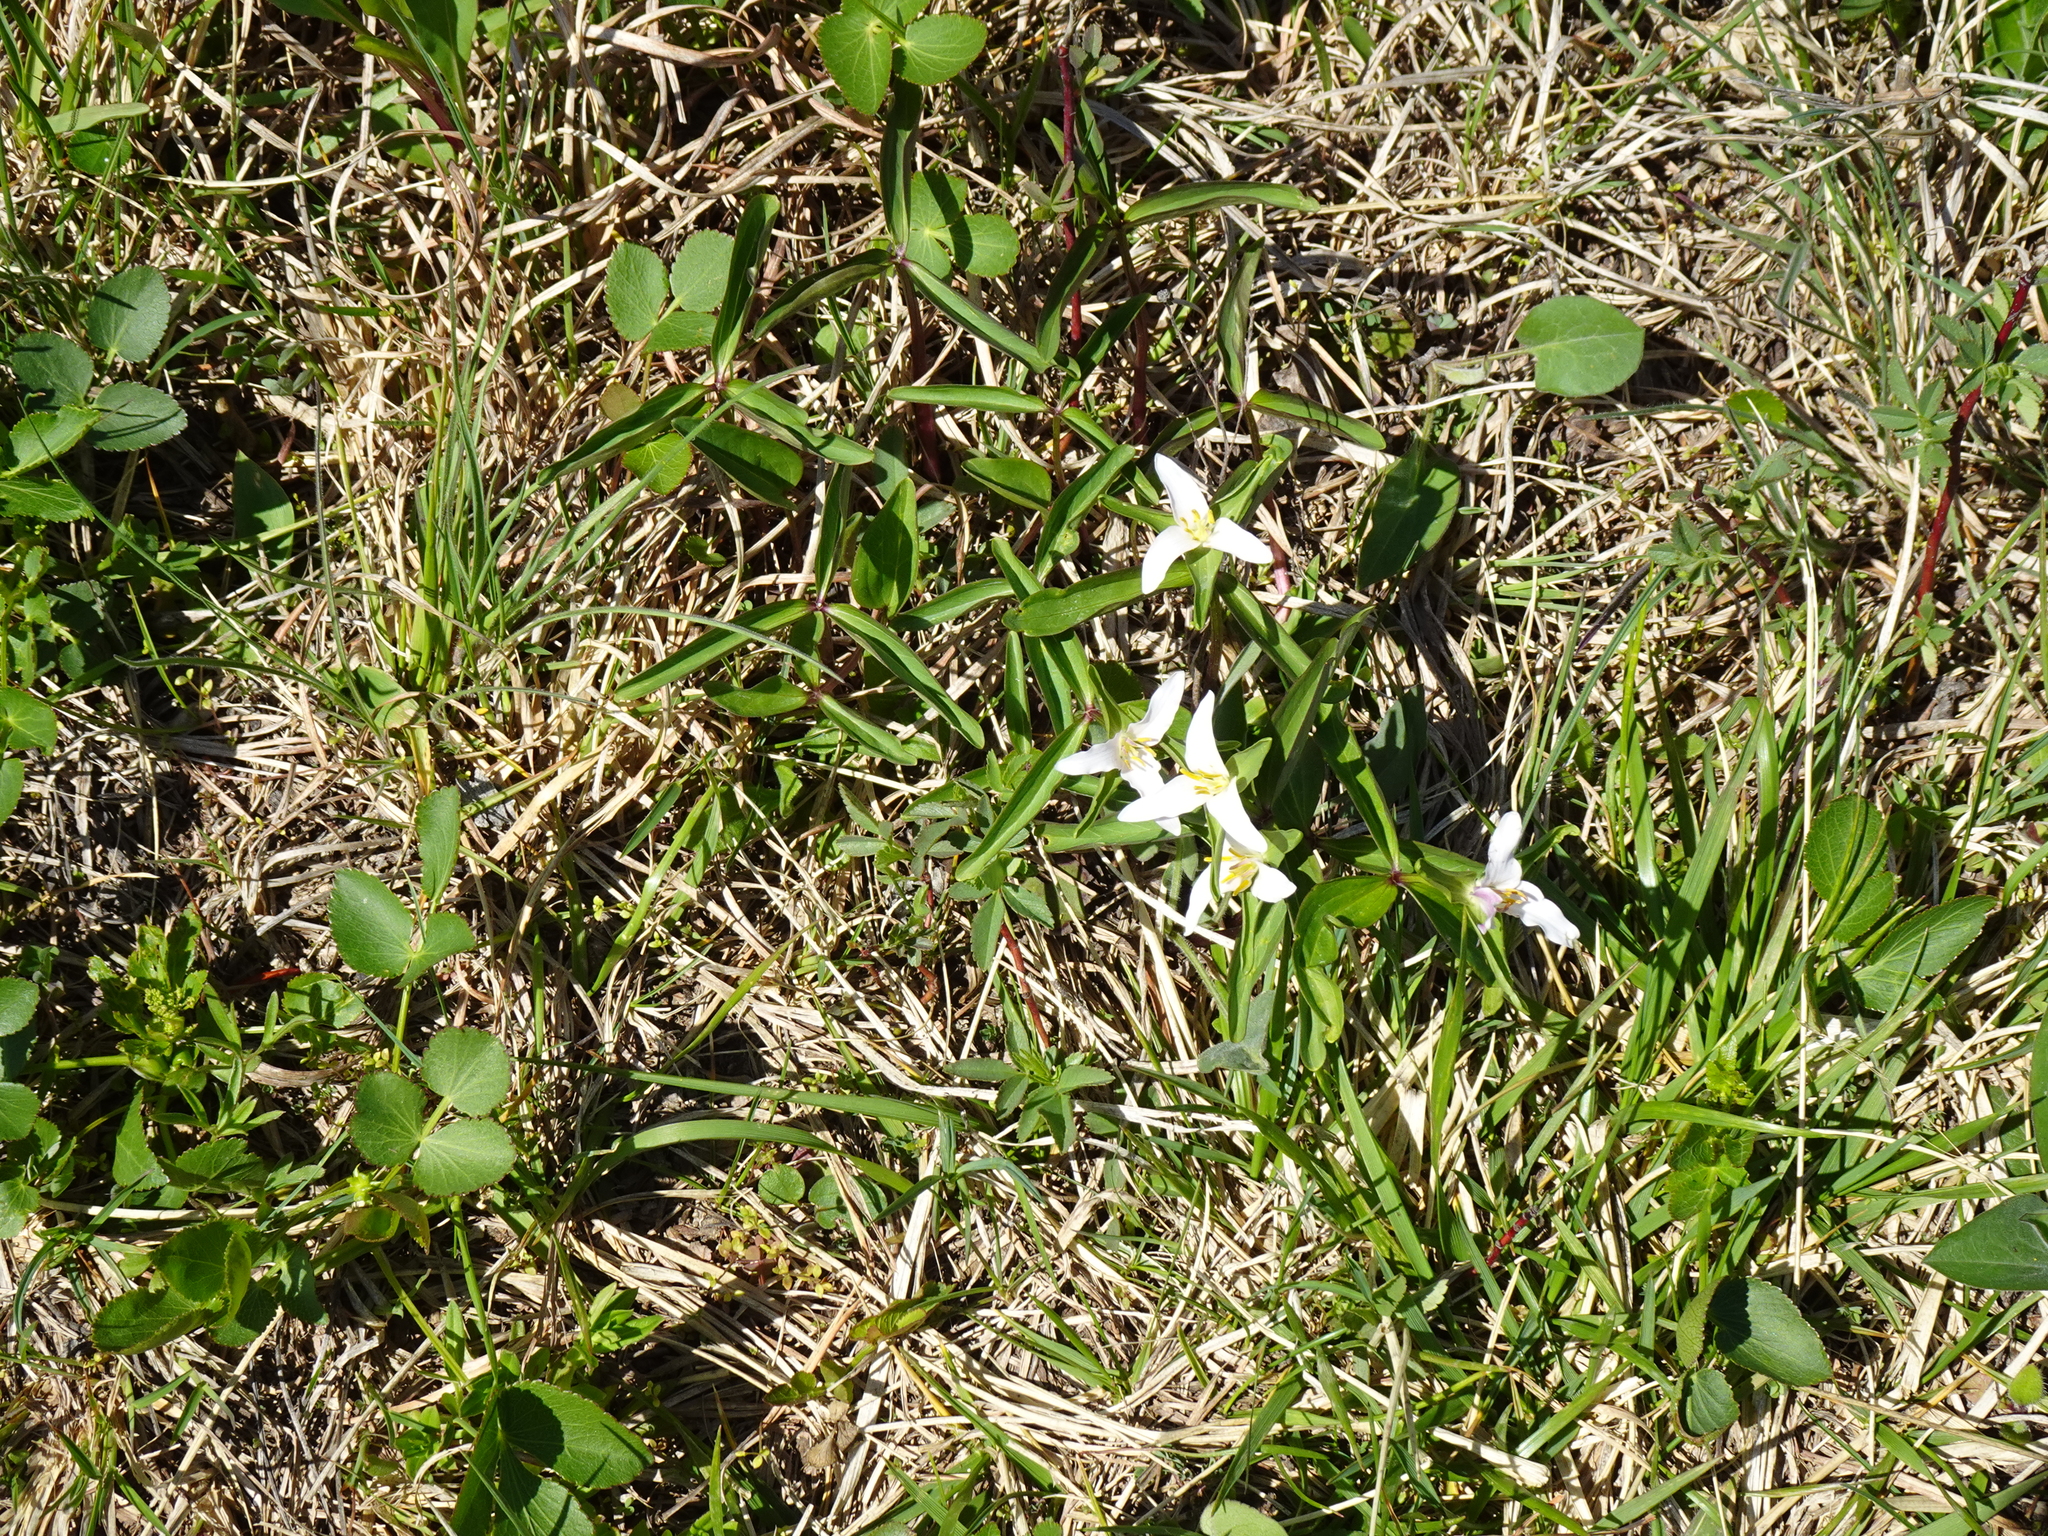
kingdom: Plantae
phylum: Tracheophyta
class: Liliopsida
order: Liliales
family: Melanthiaceae
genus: Trillium
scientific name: Trillium pusillum
